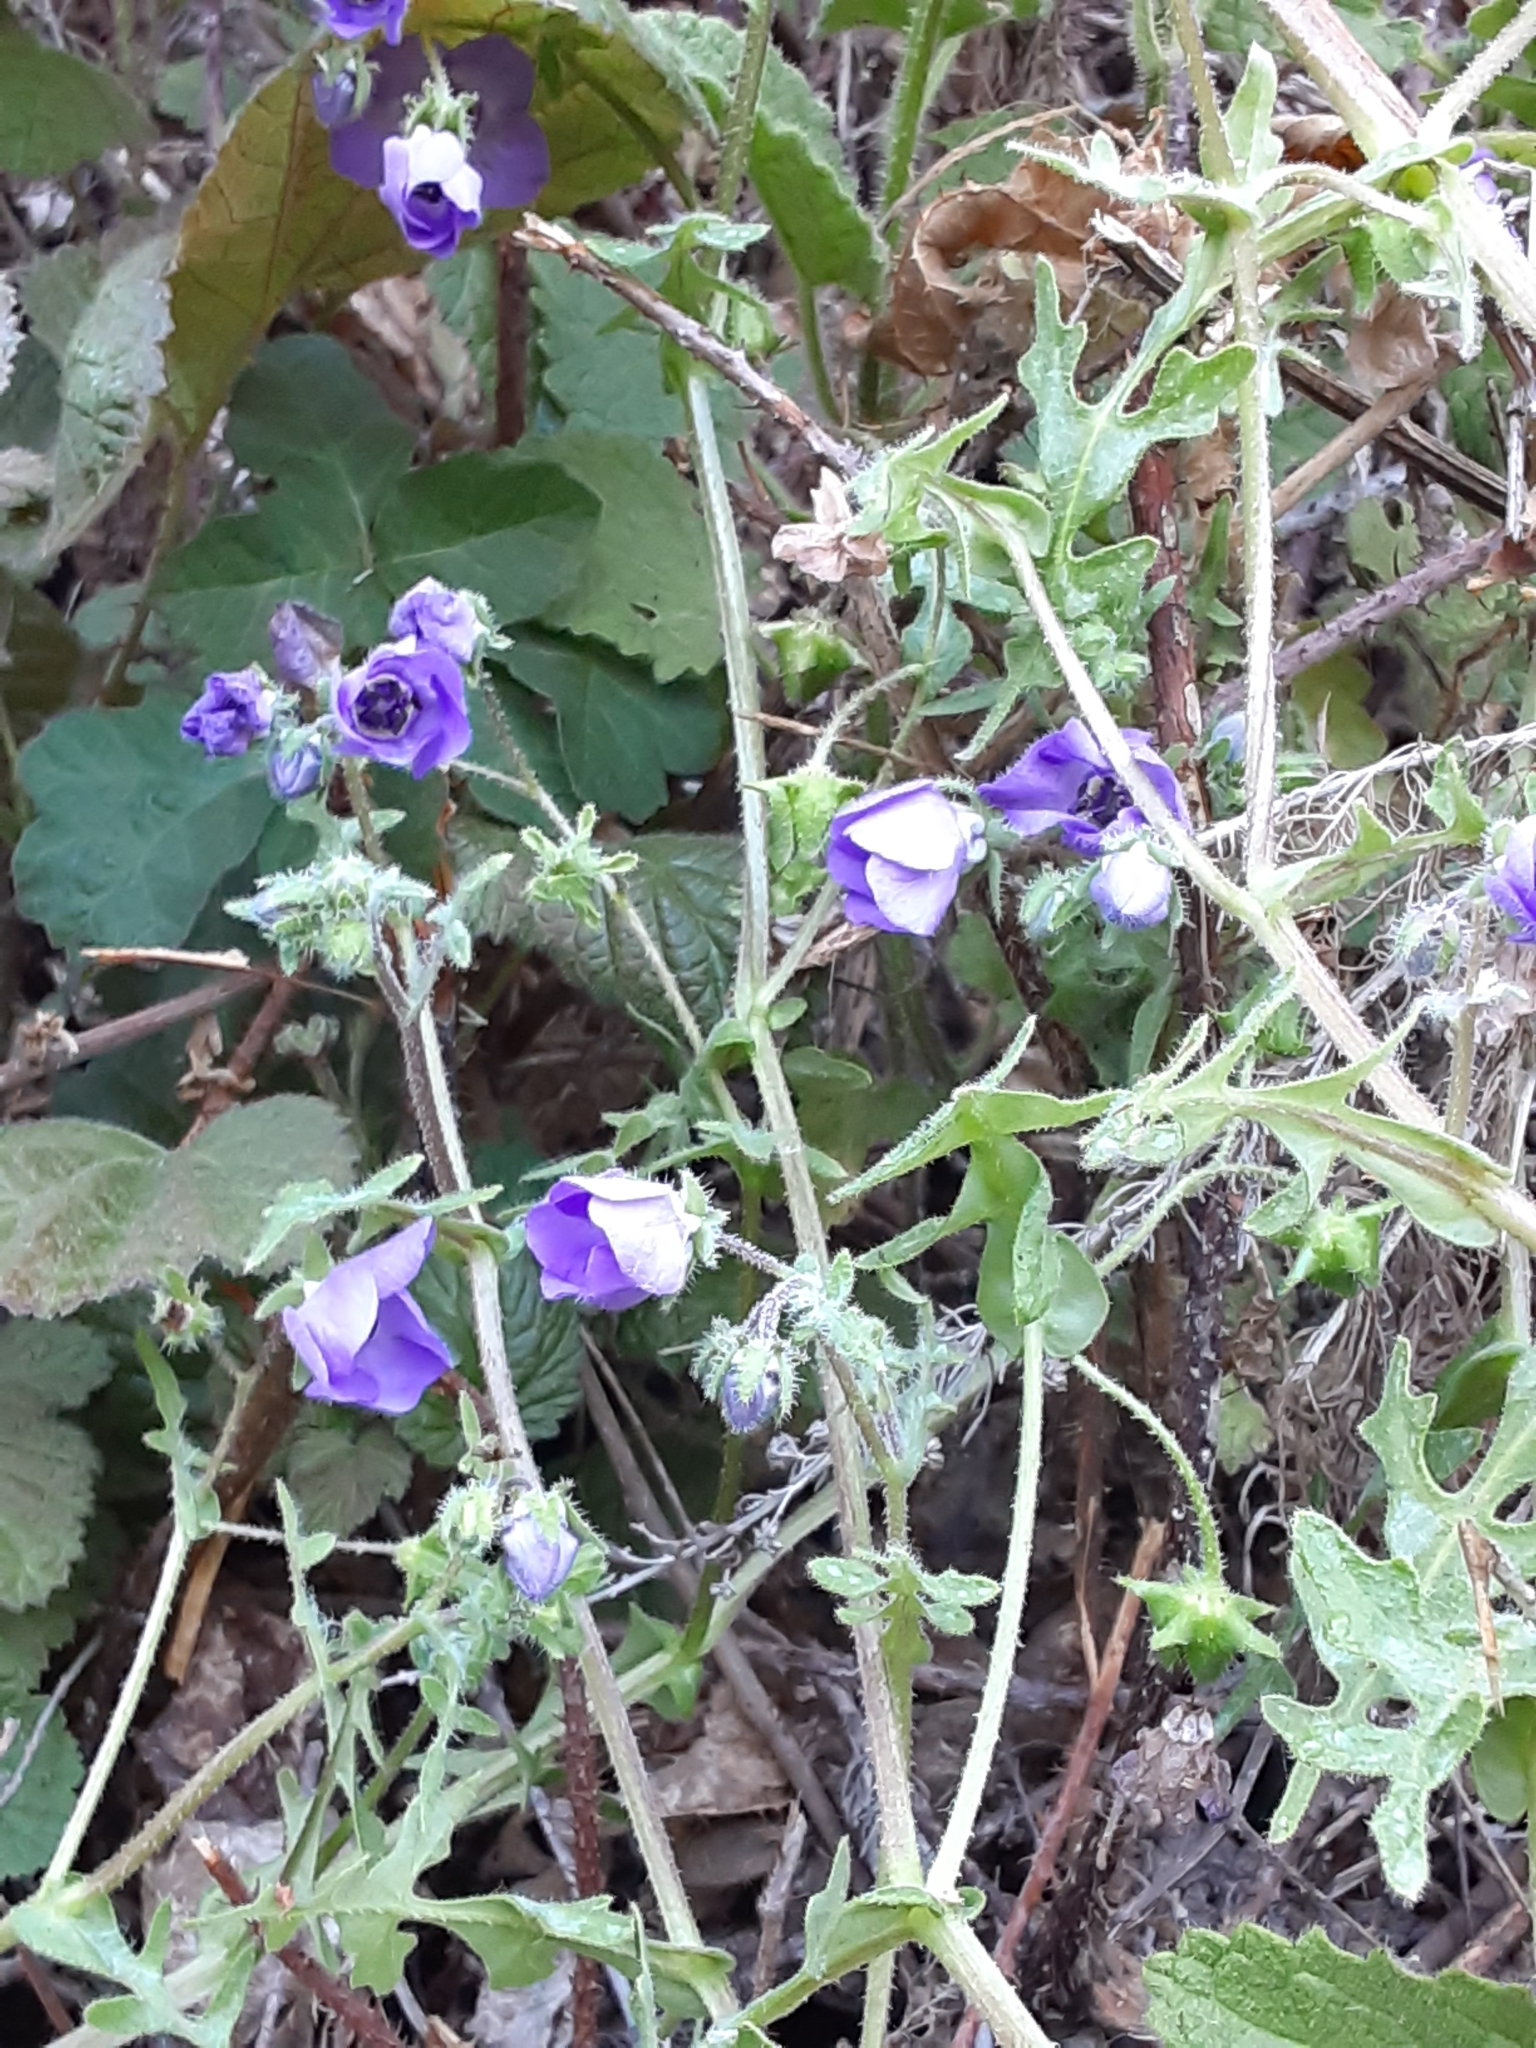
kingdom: Plantae
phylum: Tracheophyta
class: Magnoliopsida
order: Boraginales
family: Hydrophyllaceae
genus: Pholistoma
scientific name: Pholistoma auritum
